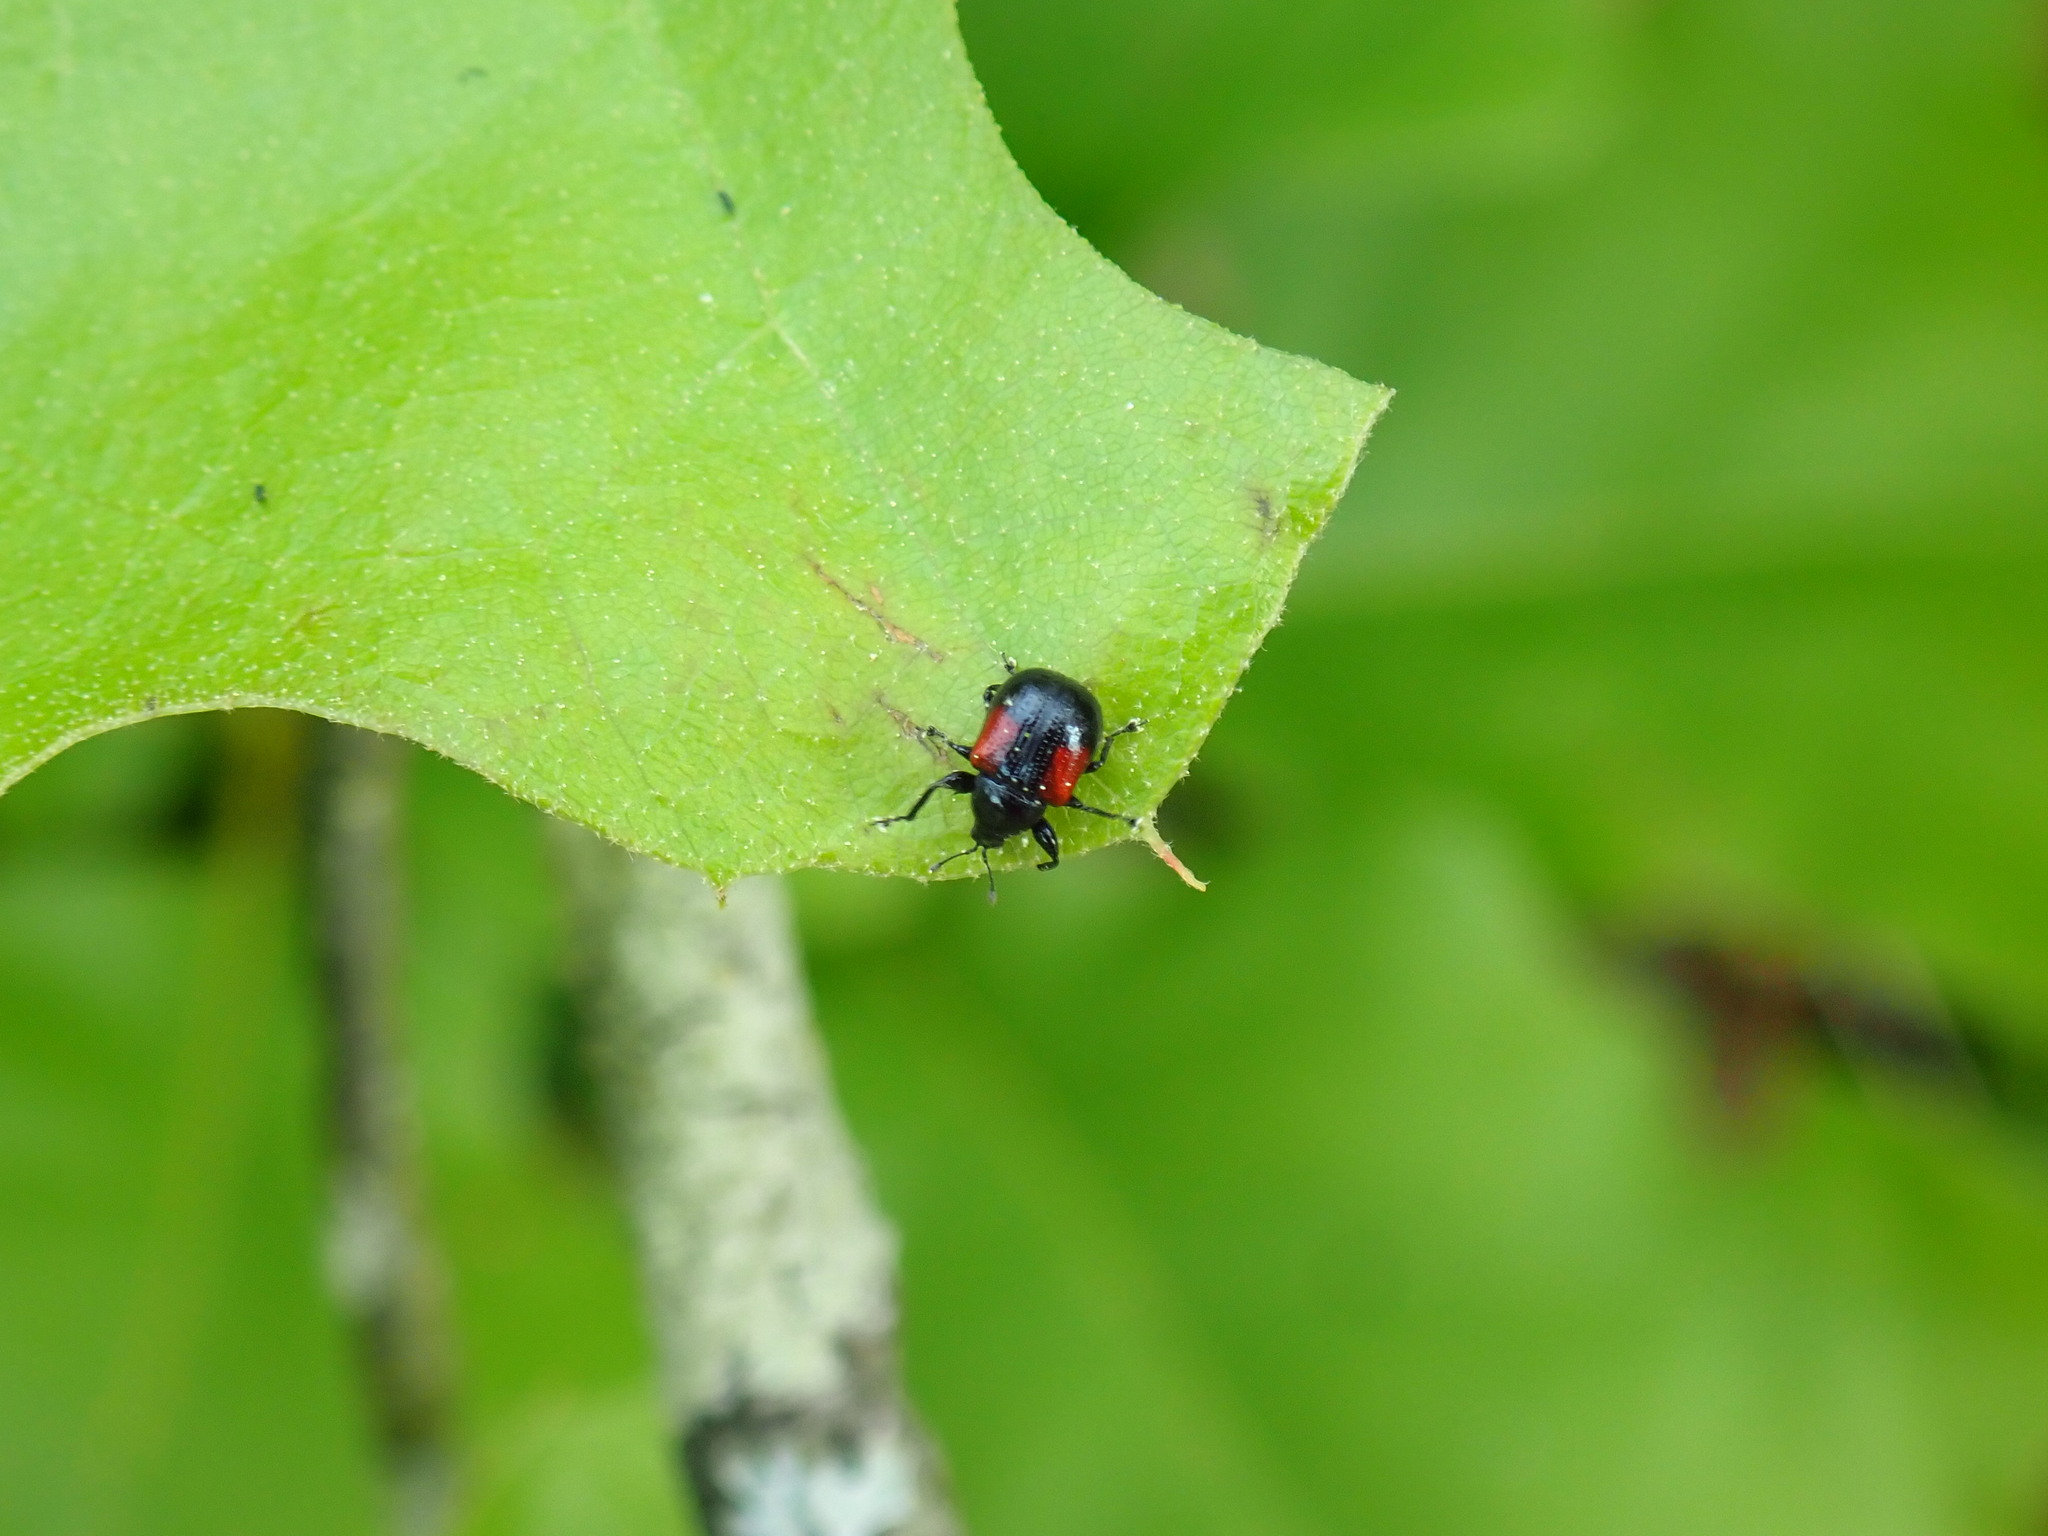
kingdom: Animalia
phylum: Arthropoda
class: Insecta
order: Coleoptera
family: Attelabidae
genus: Attelabus
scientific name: Attelabus bipustulatus
